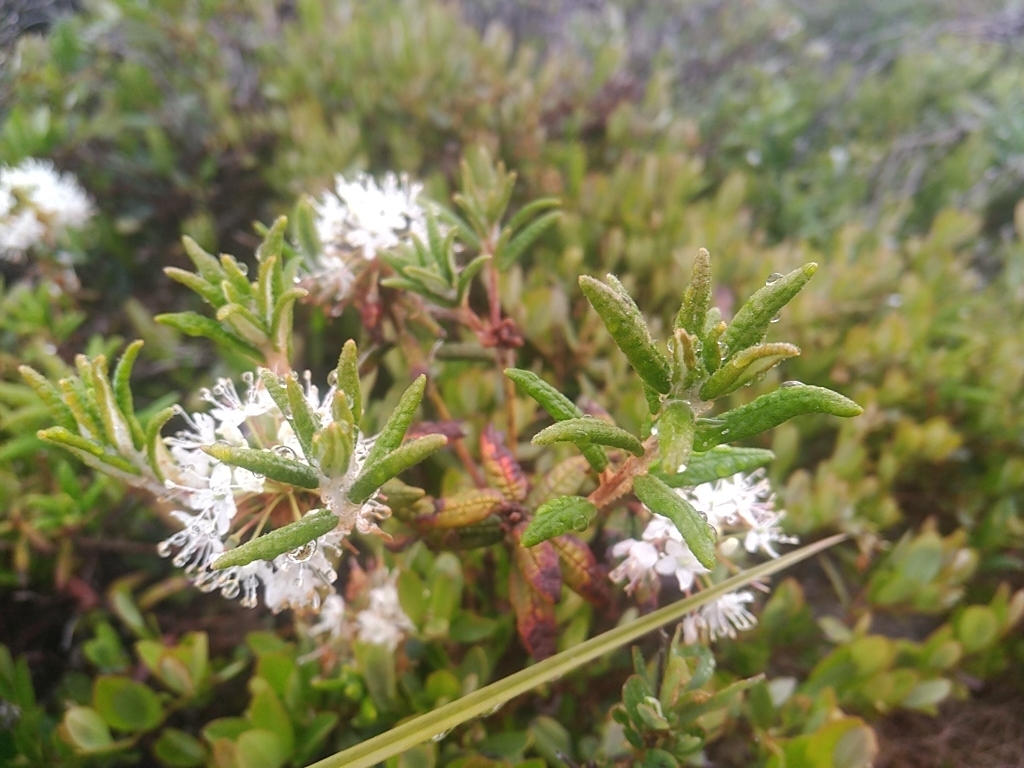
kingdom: Plantae
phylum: Tracheophyta
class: Magnoliopsida
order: Ericales
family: Ericaceae
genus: Rhododendron
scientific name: Rhododendron groenlandicum
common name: Bog labrador tea
